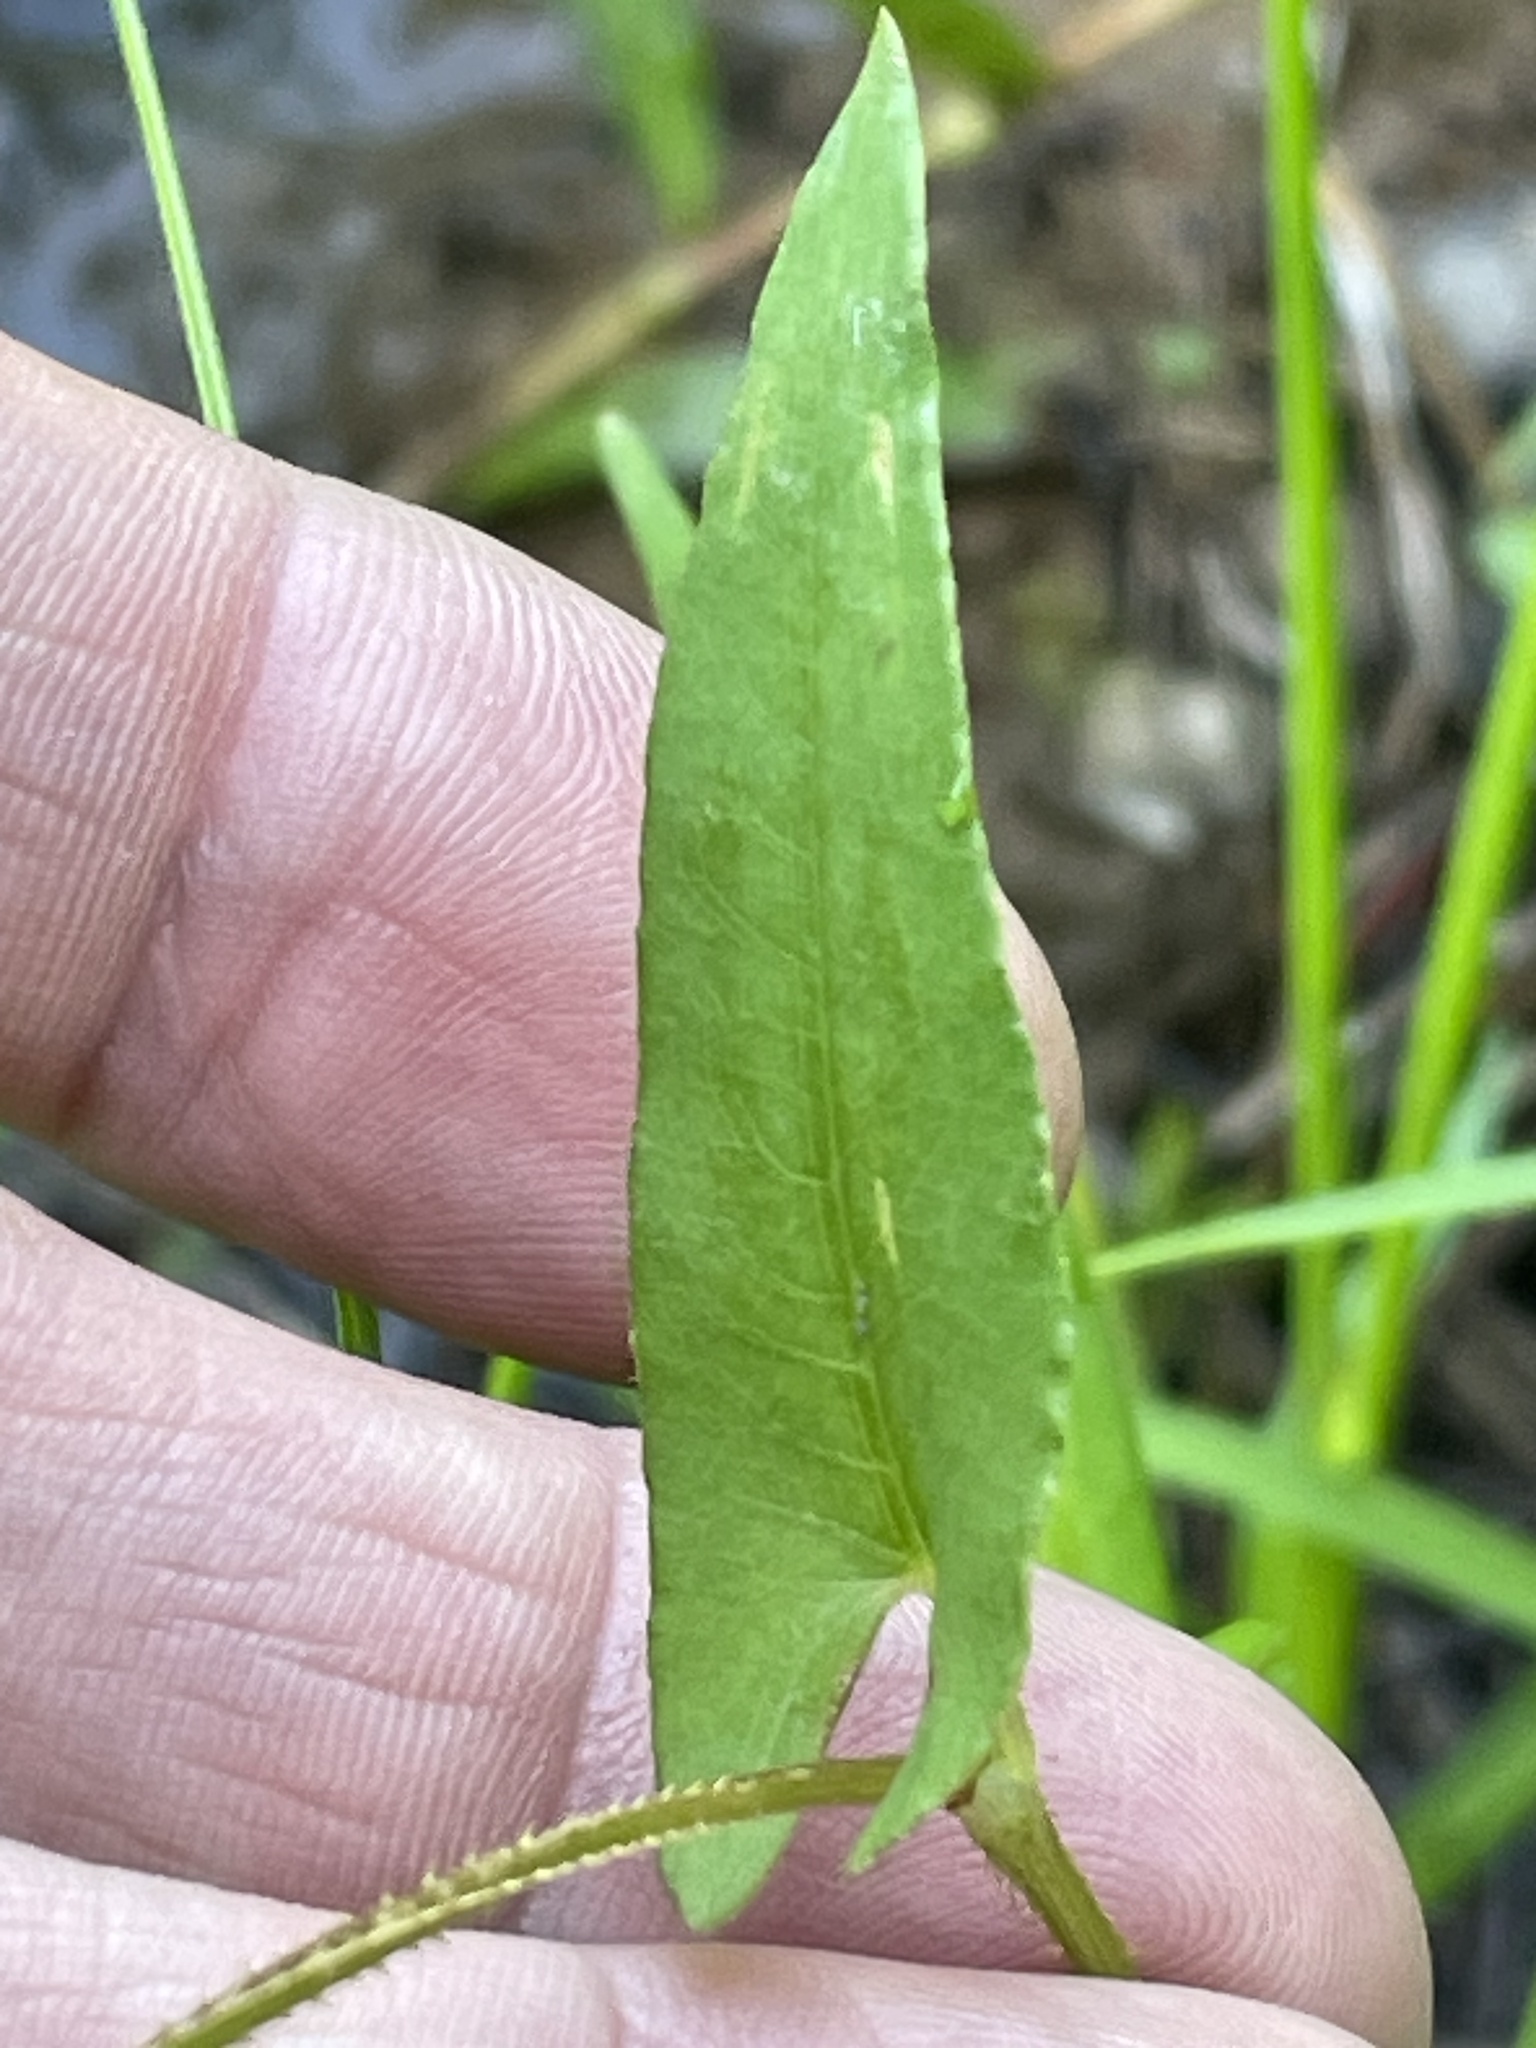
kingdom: Plantae
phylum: Tracheophyta
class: Magnoliopsida
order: Caryophyllales
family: Polygonaceae
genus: Persicaria
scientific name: Persicaria sagittata
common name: American tearthumb
